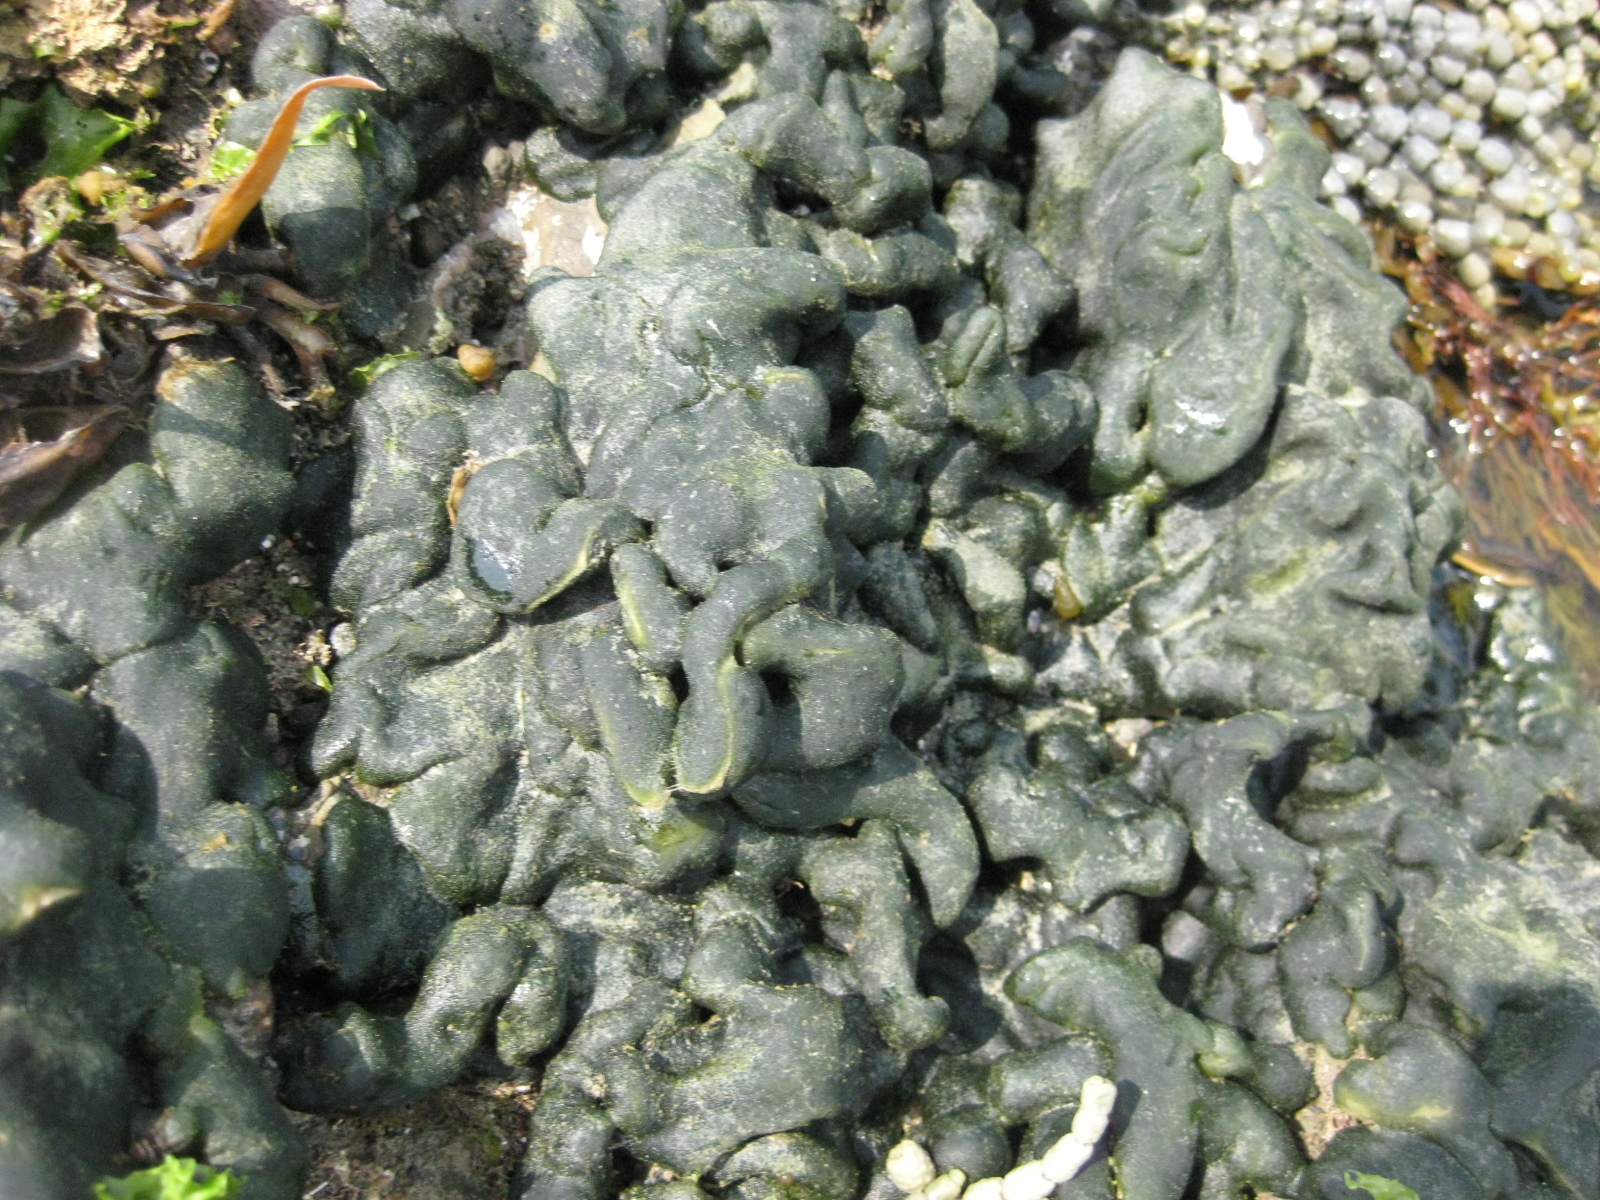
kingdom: Plantae
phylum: Chlorophyta
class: Ulvophyceae
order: Bryopsidales
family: Codiaceae
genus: Codium
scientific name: Codium convolutum
